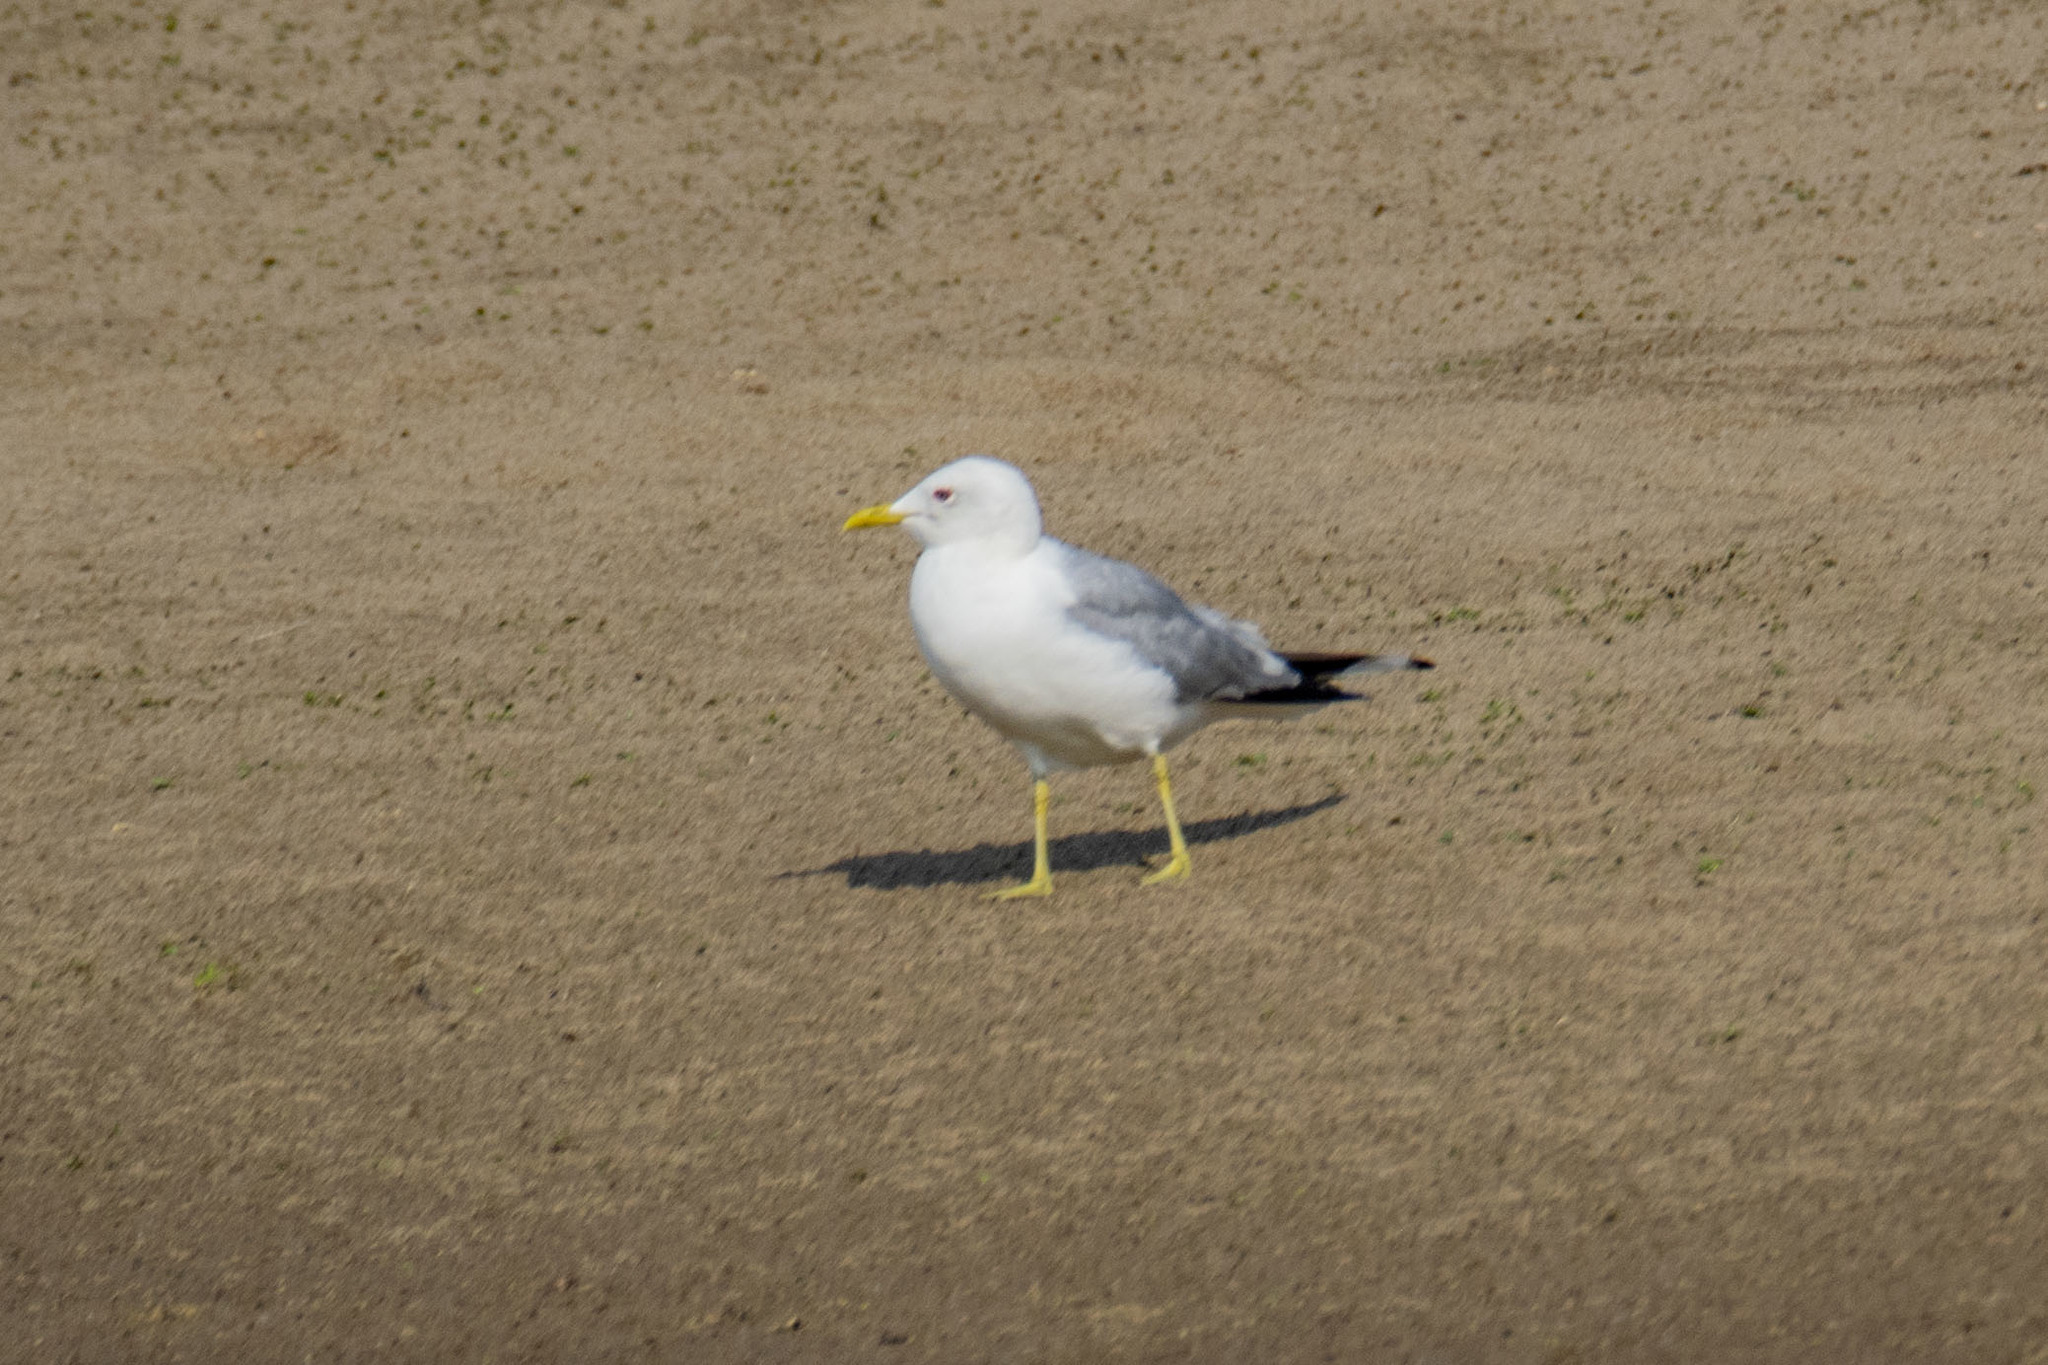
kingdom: Animalia
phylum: Chordata
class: Aves
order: Charadriiformes
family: Laridae
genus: Larus
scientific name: Larus canus
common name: Mew gull
